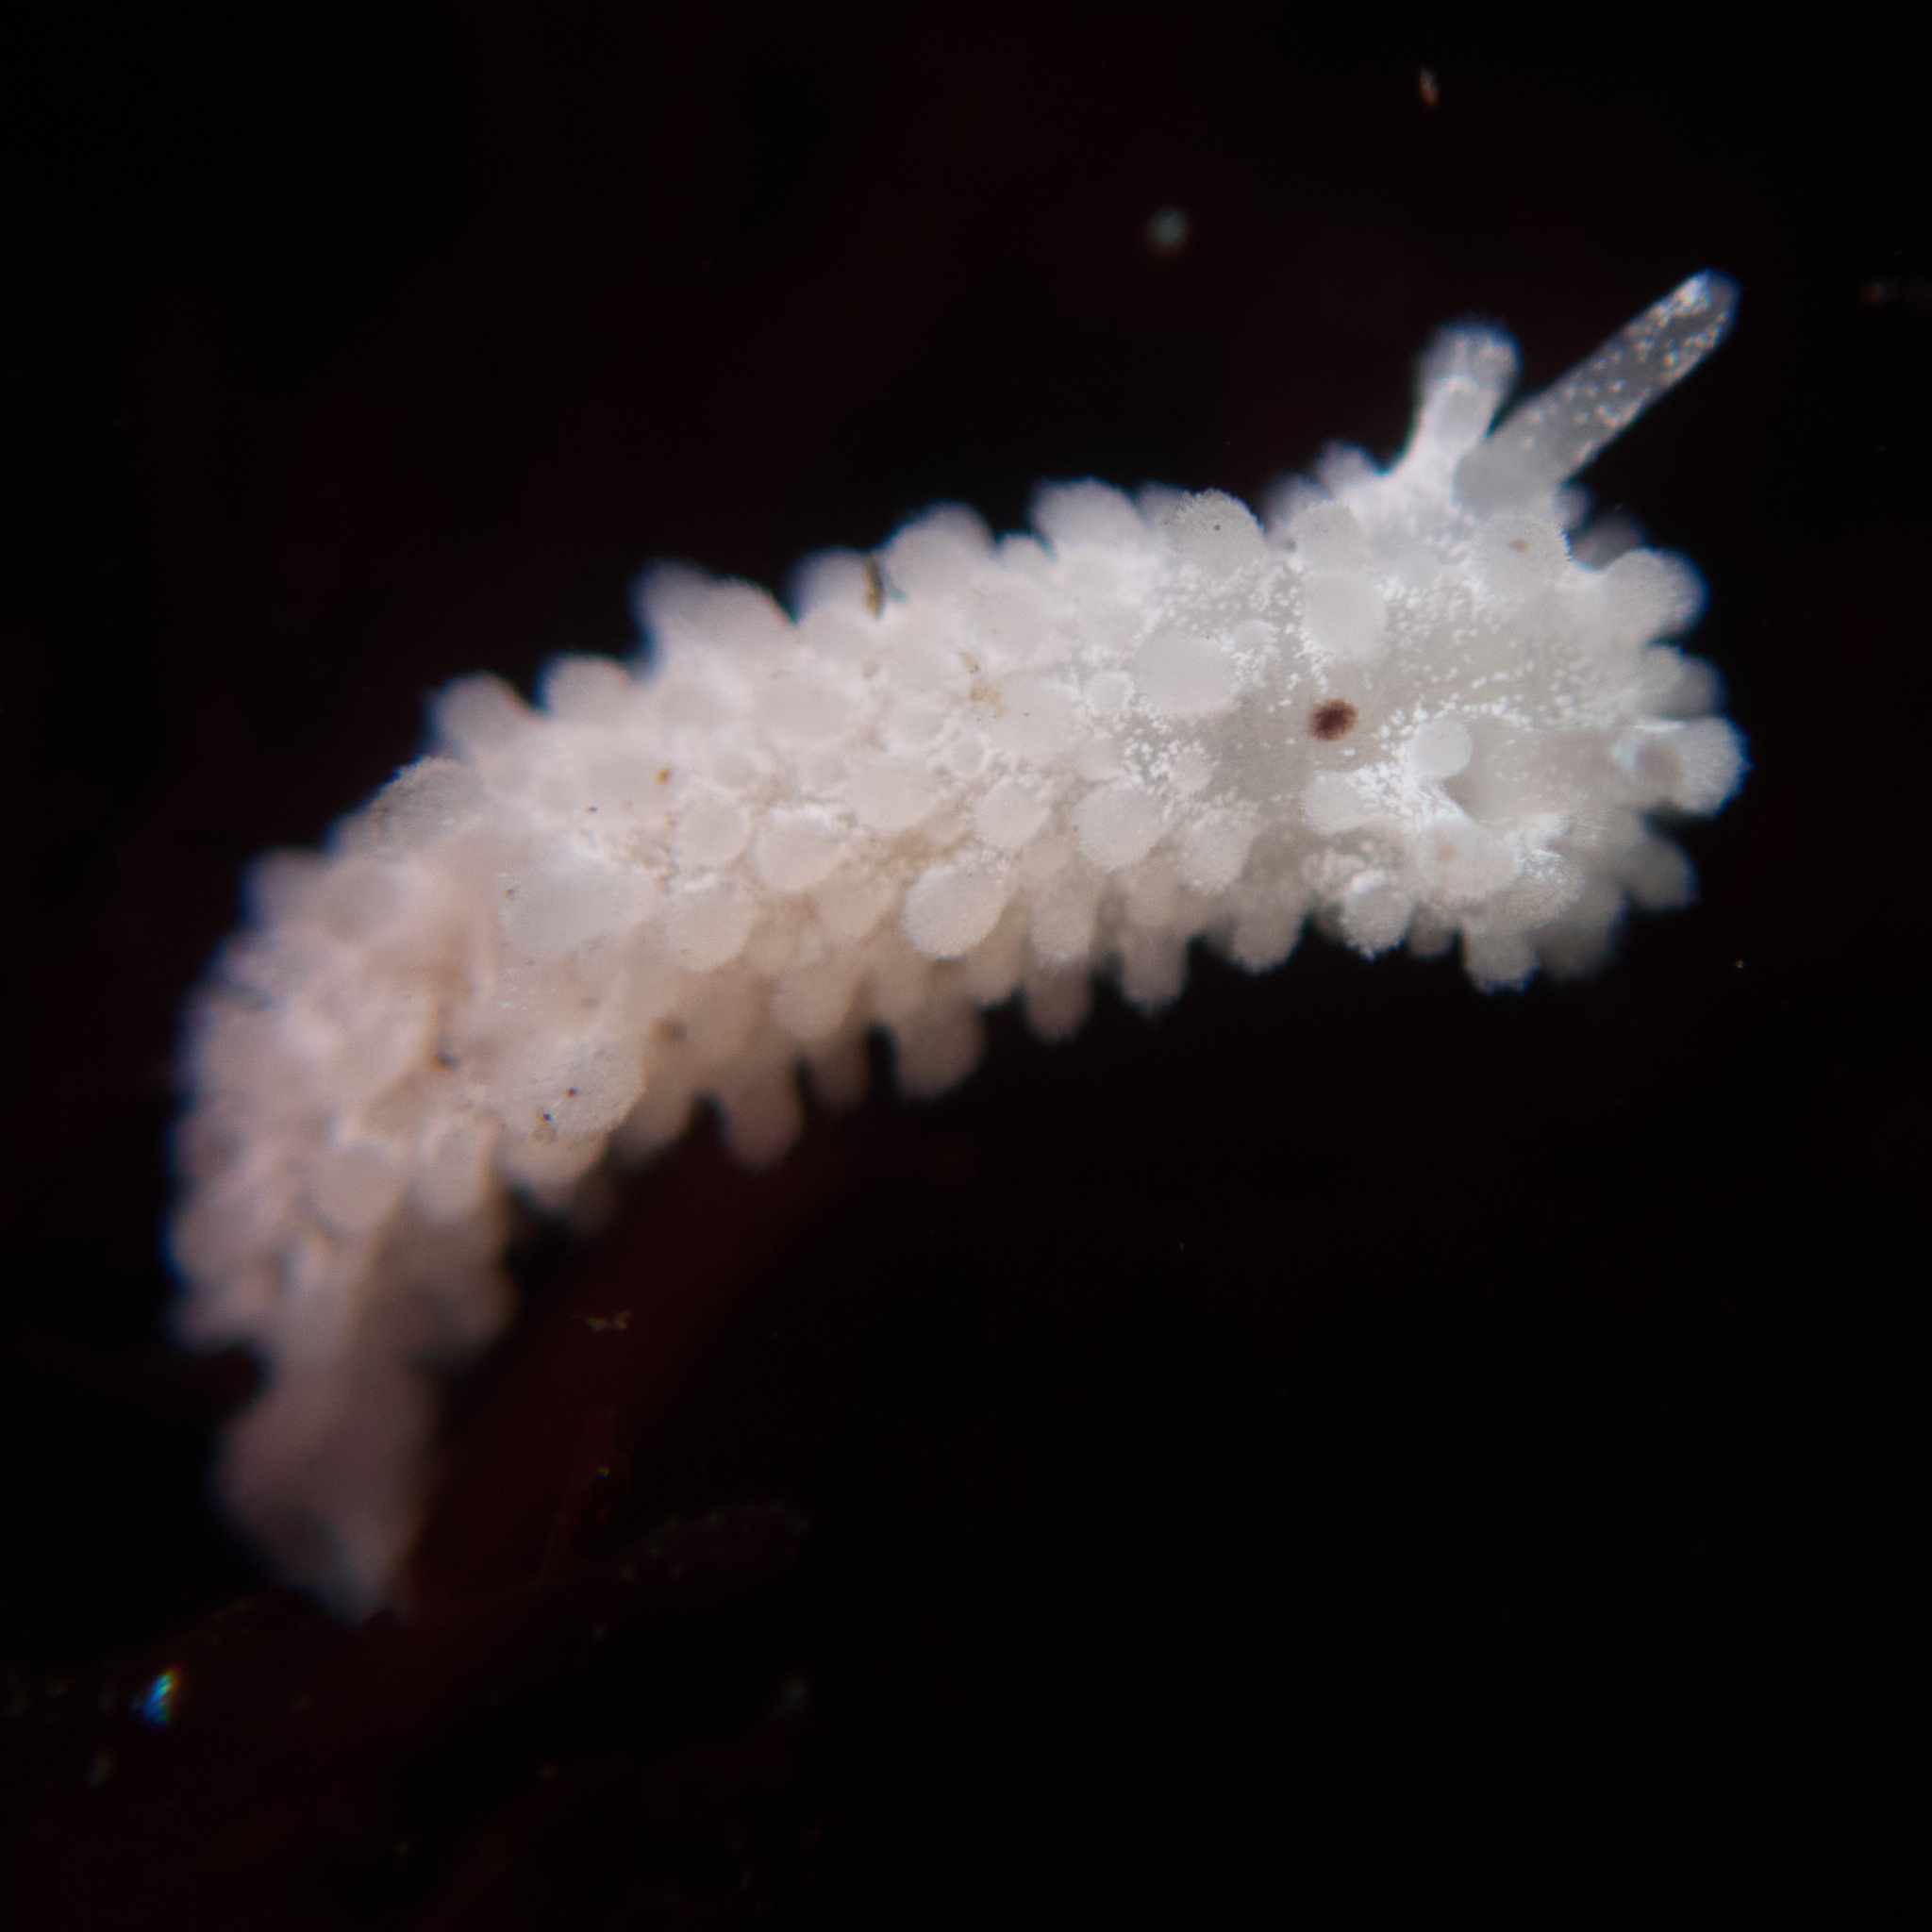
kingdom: Animalia
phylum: Mollusca
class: Gastropoda
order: Nudibranchia
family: Aegiridae
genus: Aegires
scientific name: Aegires albopunctatus
